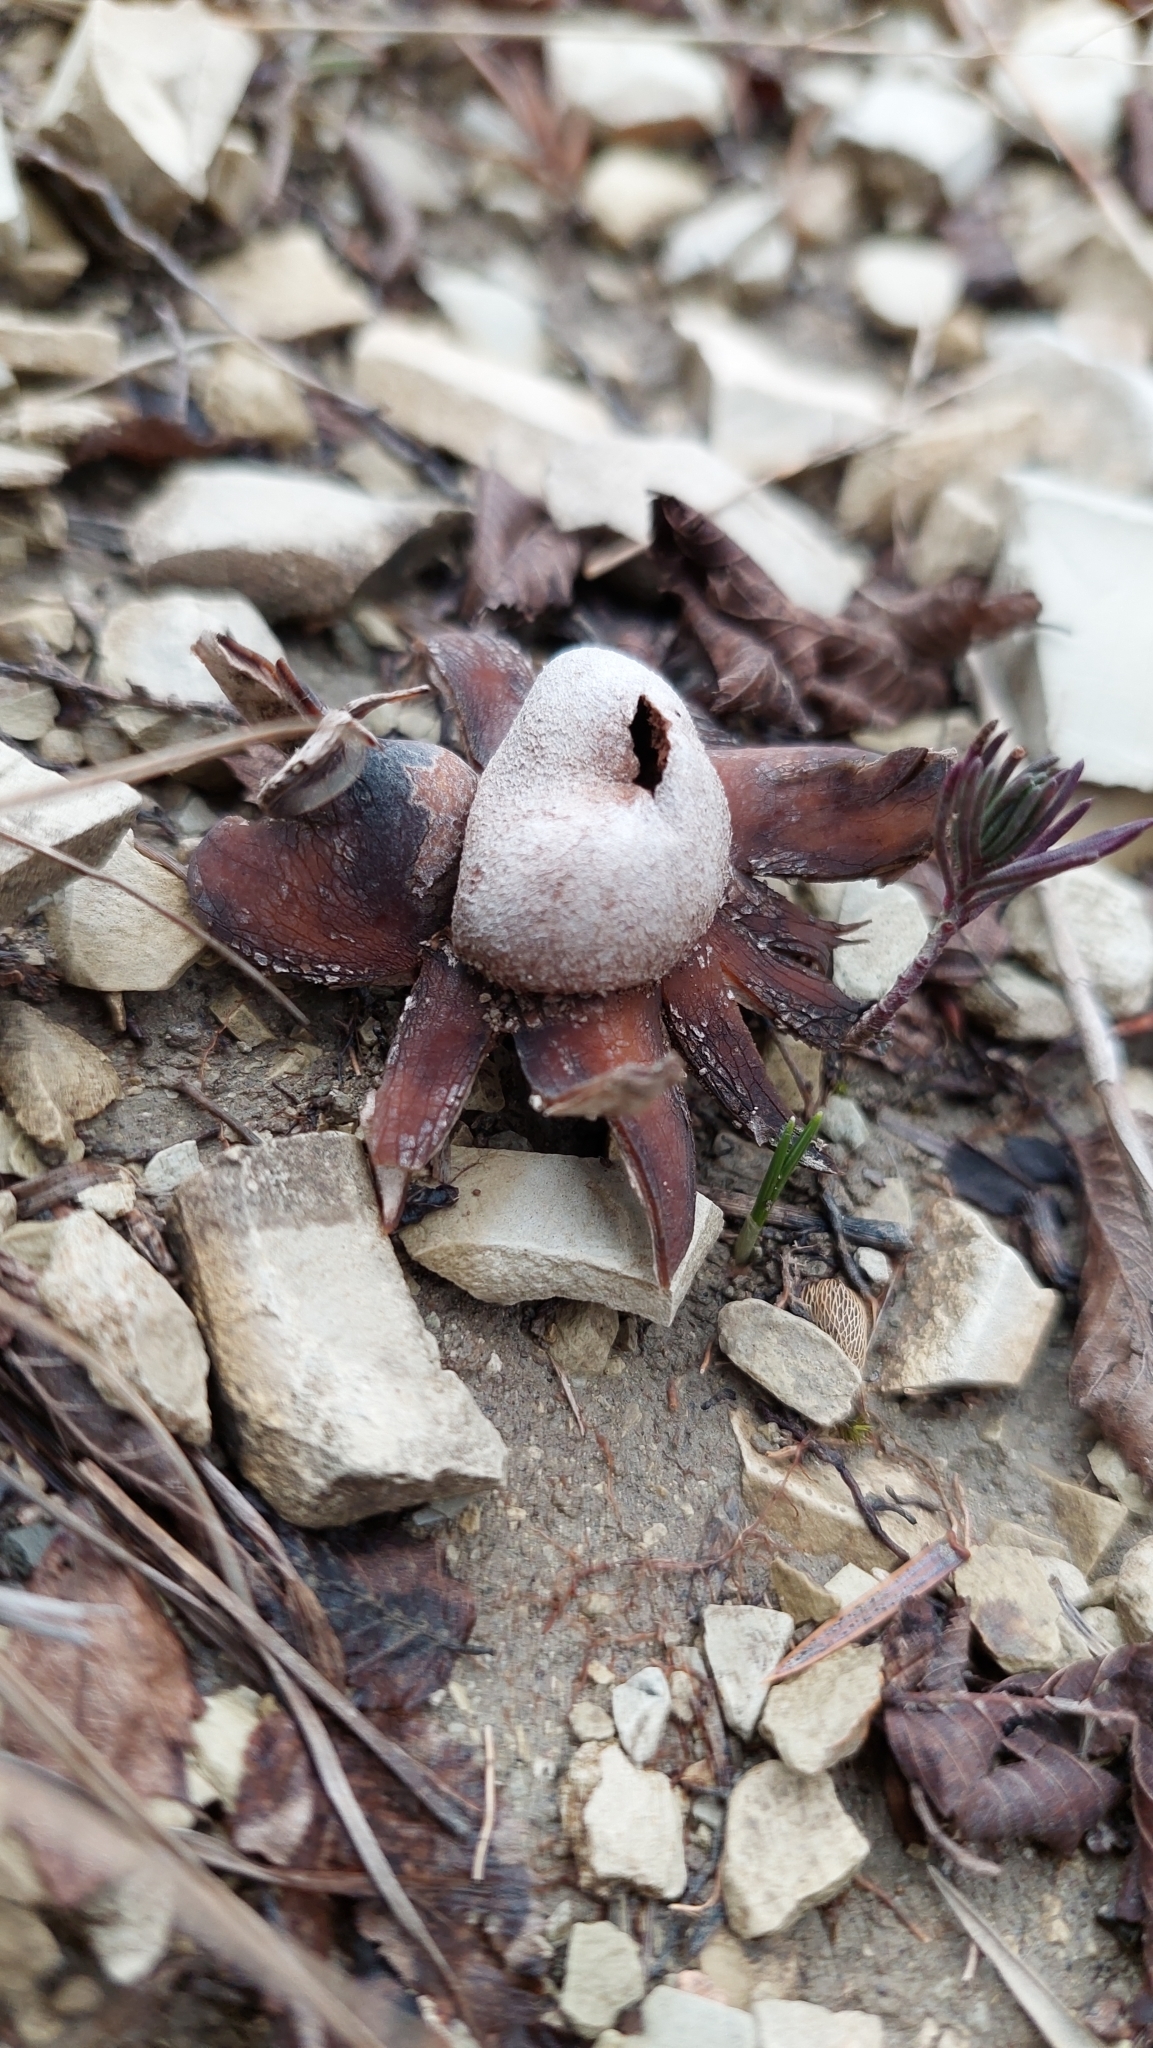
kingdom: Fungi
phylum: Basidiomycota
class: Agaricomycetes
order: Boletales
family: Diplocystidiaceae
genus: Astraeus
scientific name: Astraeus hygrometricus
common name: Barometer earthstar
